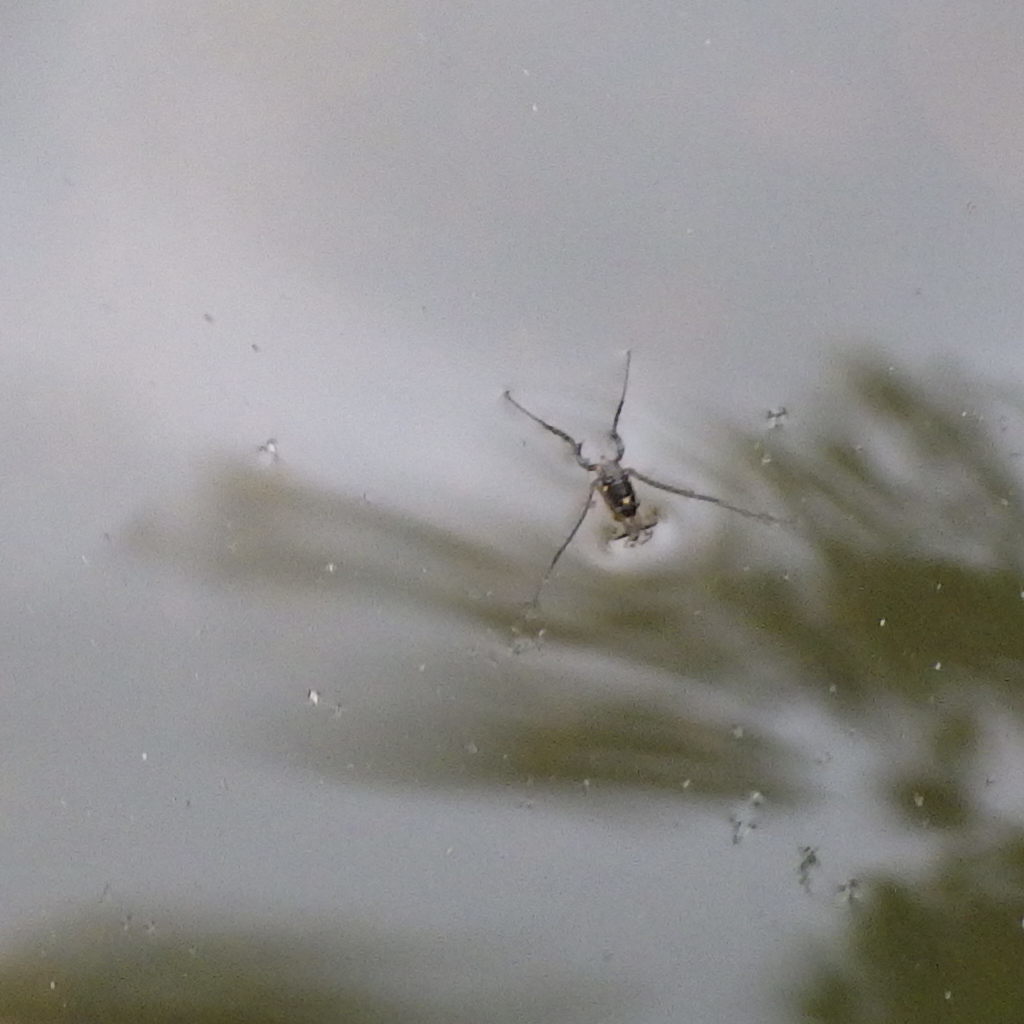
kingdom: Animalia
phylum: Arthropoda
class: Insecta
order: Hemiptera
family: Gerridae
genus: Rheumatobates
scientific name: Rheumatobates rileyi
